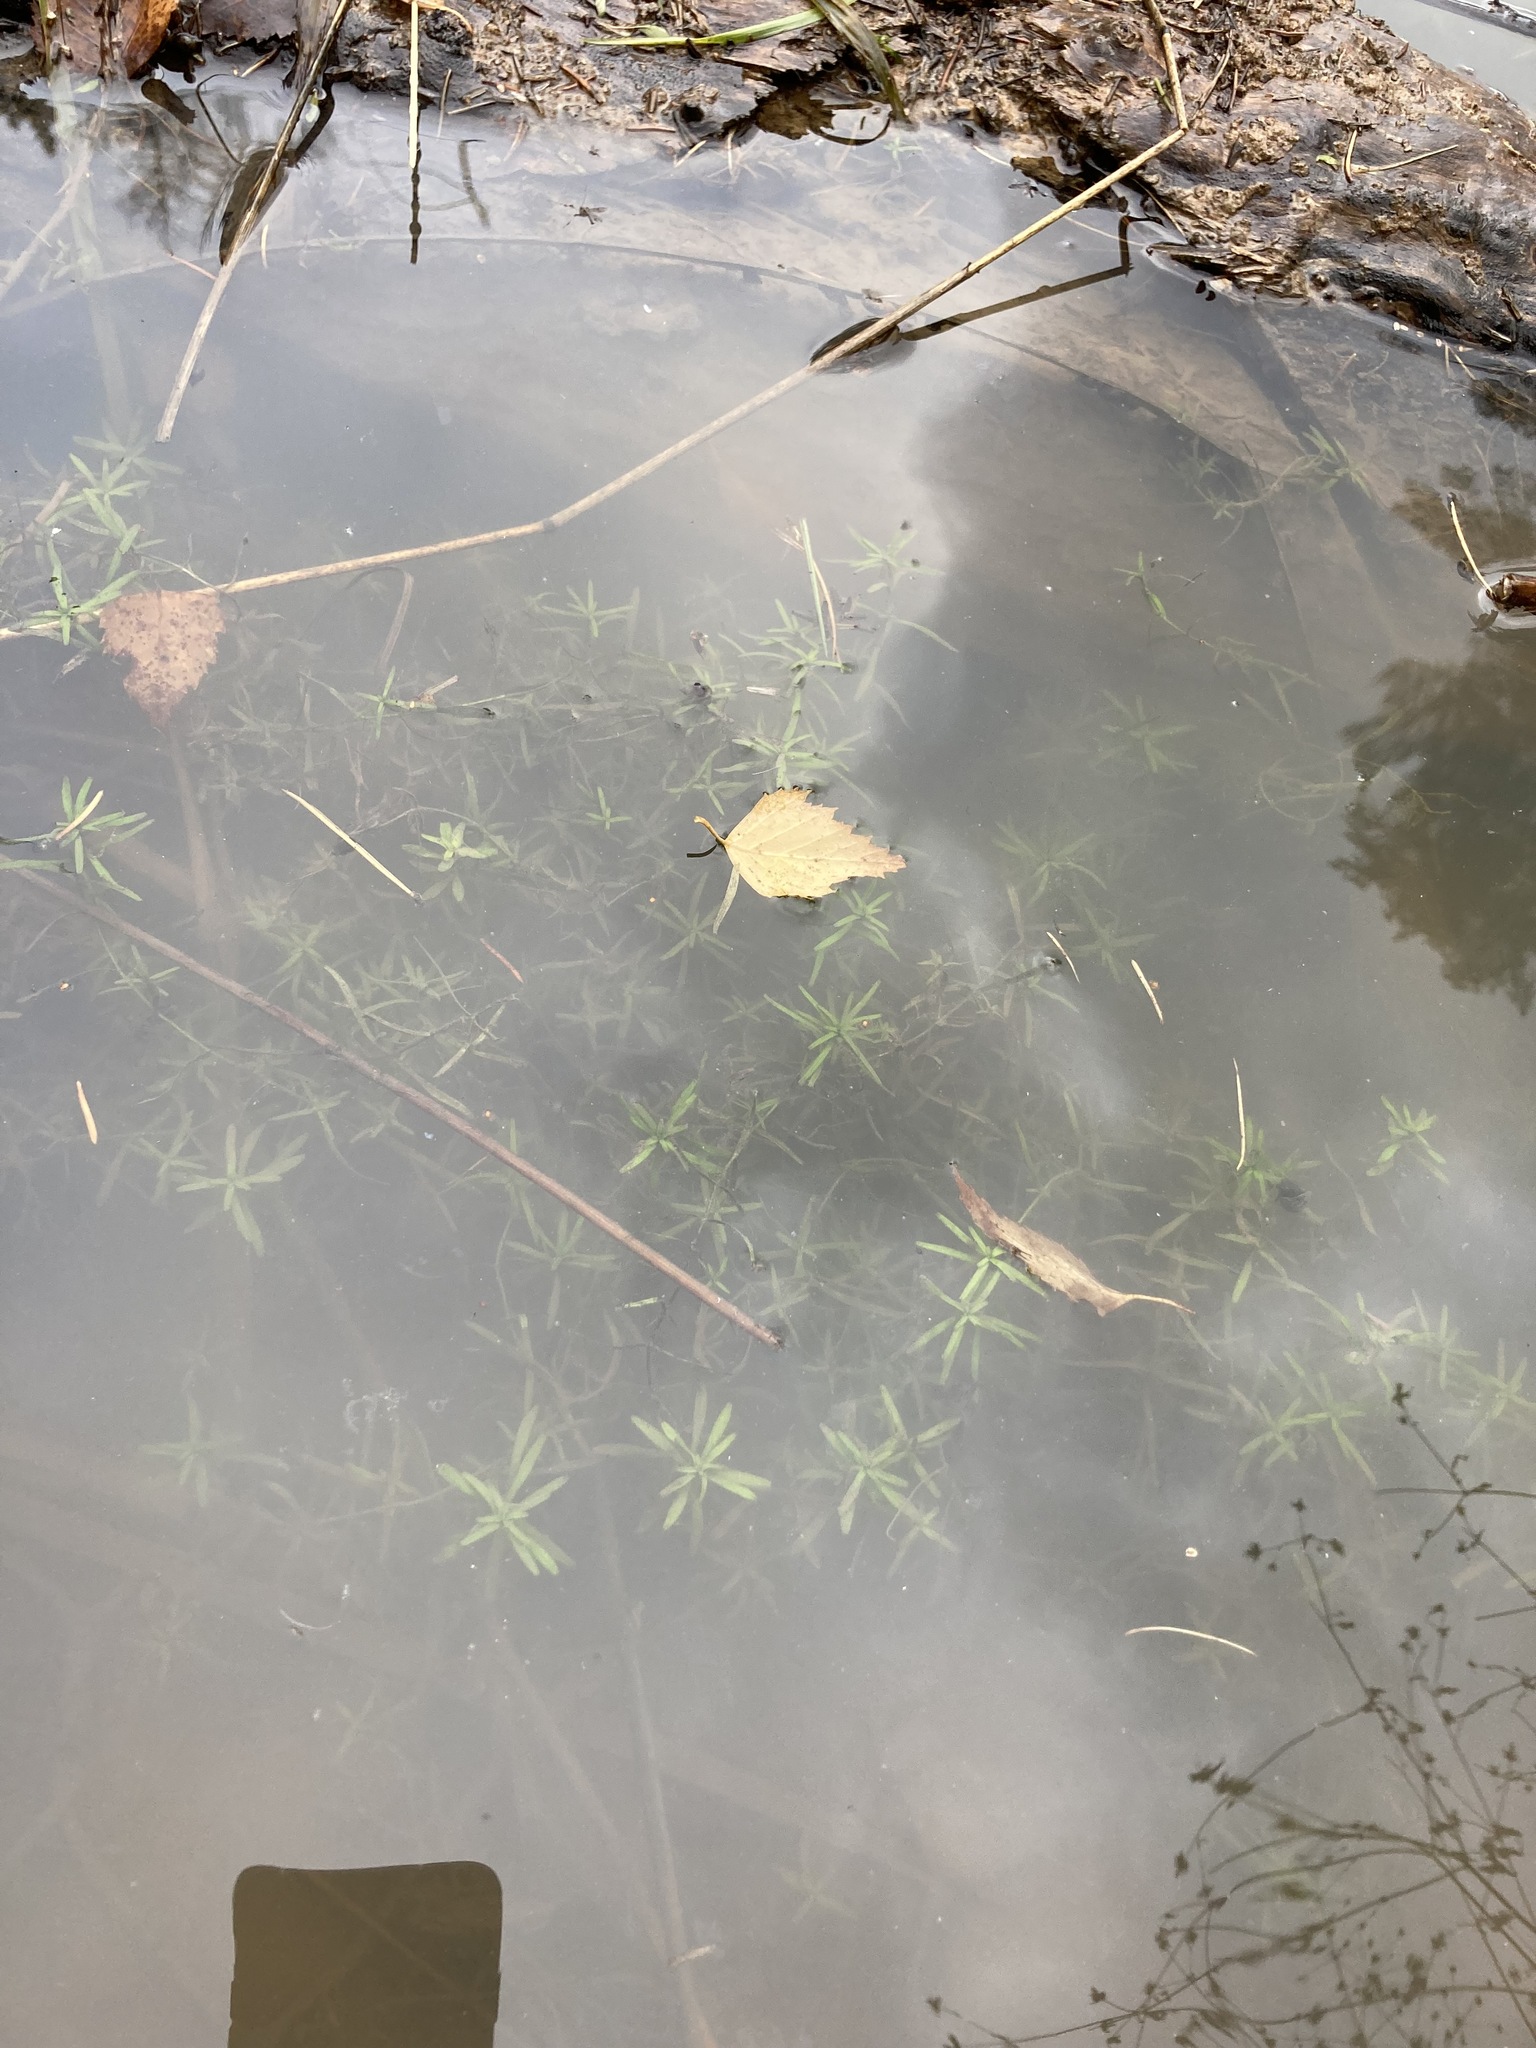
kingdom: Plantae
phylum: Tracheophyta
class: Magnoliopsida
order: Lamiales
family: Plantaginaceae
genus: Callitriche
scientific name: Callitriche
